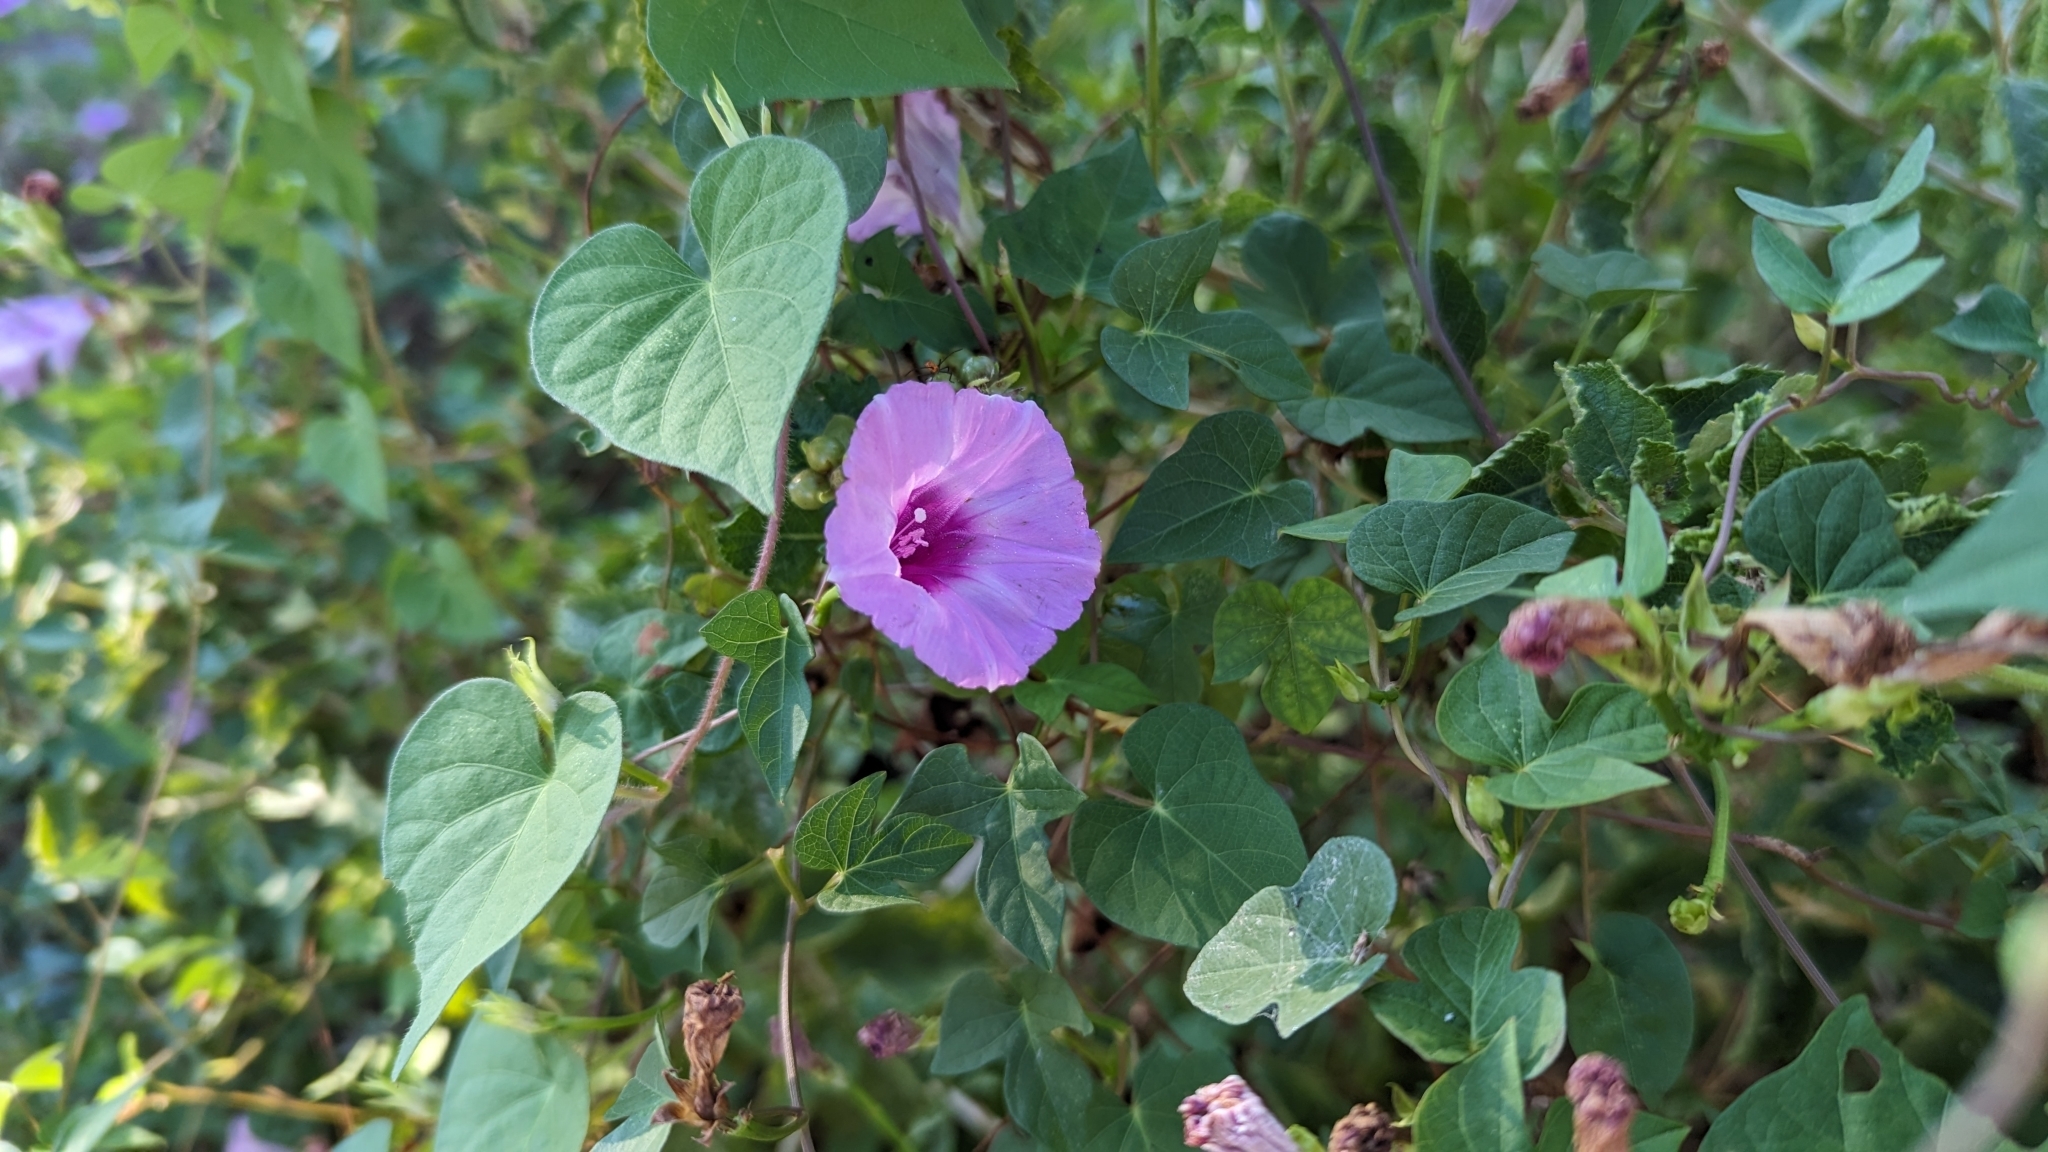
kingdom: Plantae
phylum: Tracheophyta
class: Magnoliopsida
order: Solanales
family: Convolvulaceae
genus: Ipomoea
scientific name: Ipomoea cordatotriloba
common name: Cotton morning glory
